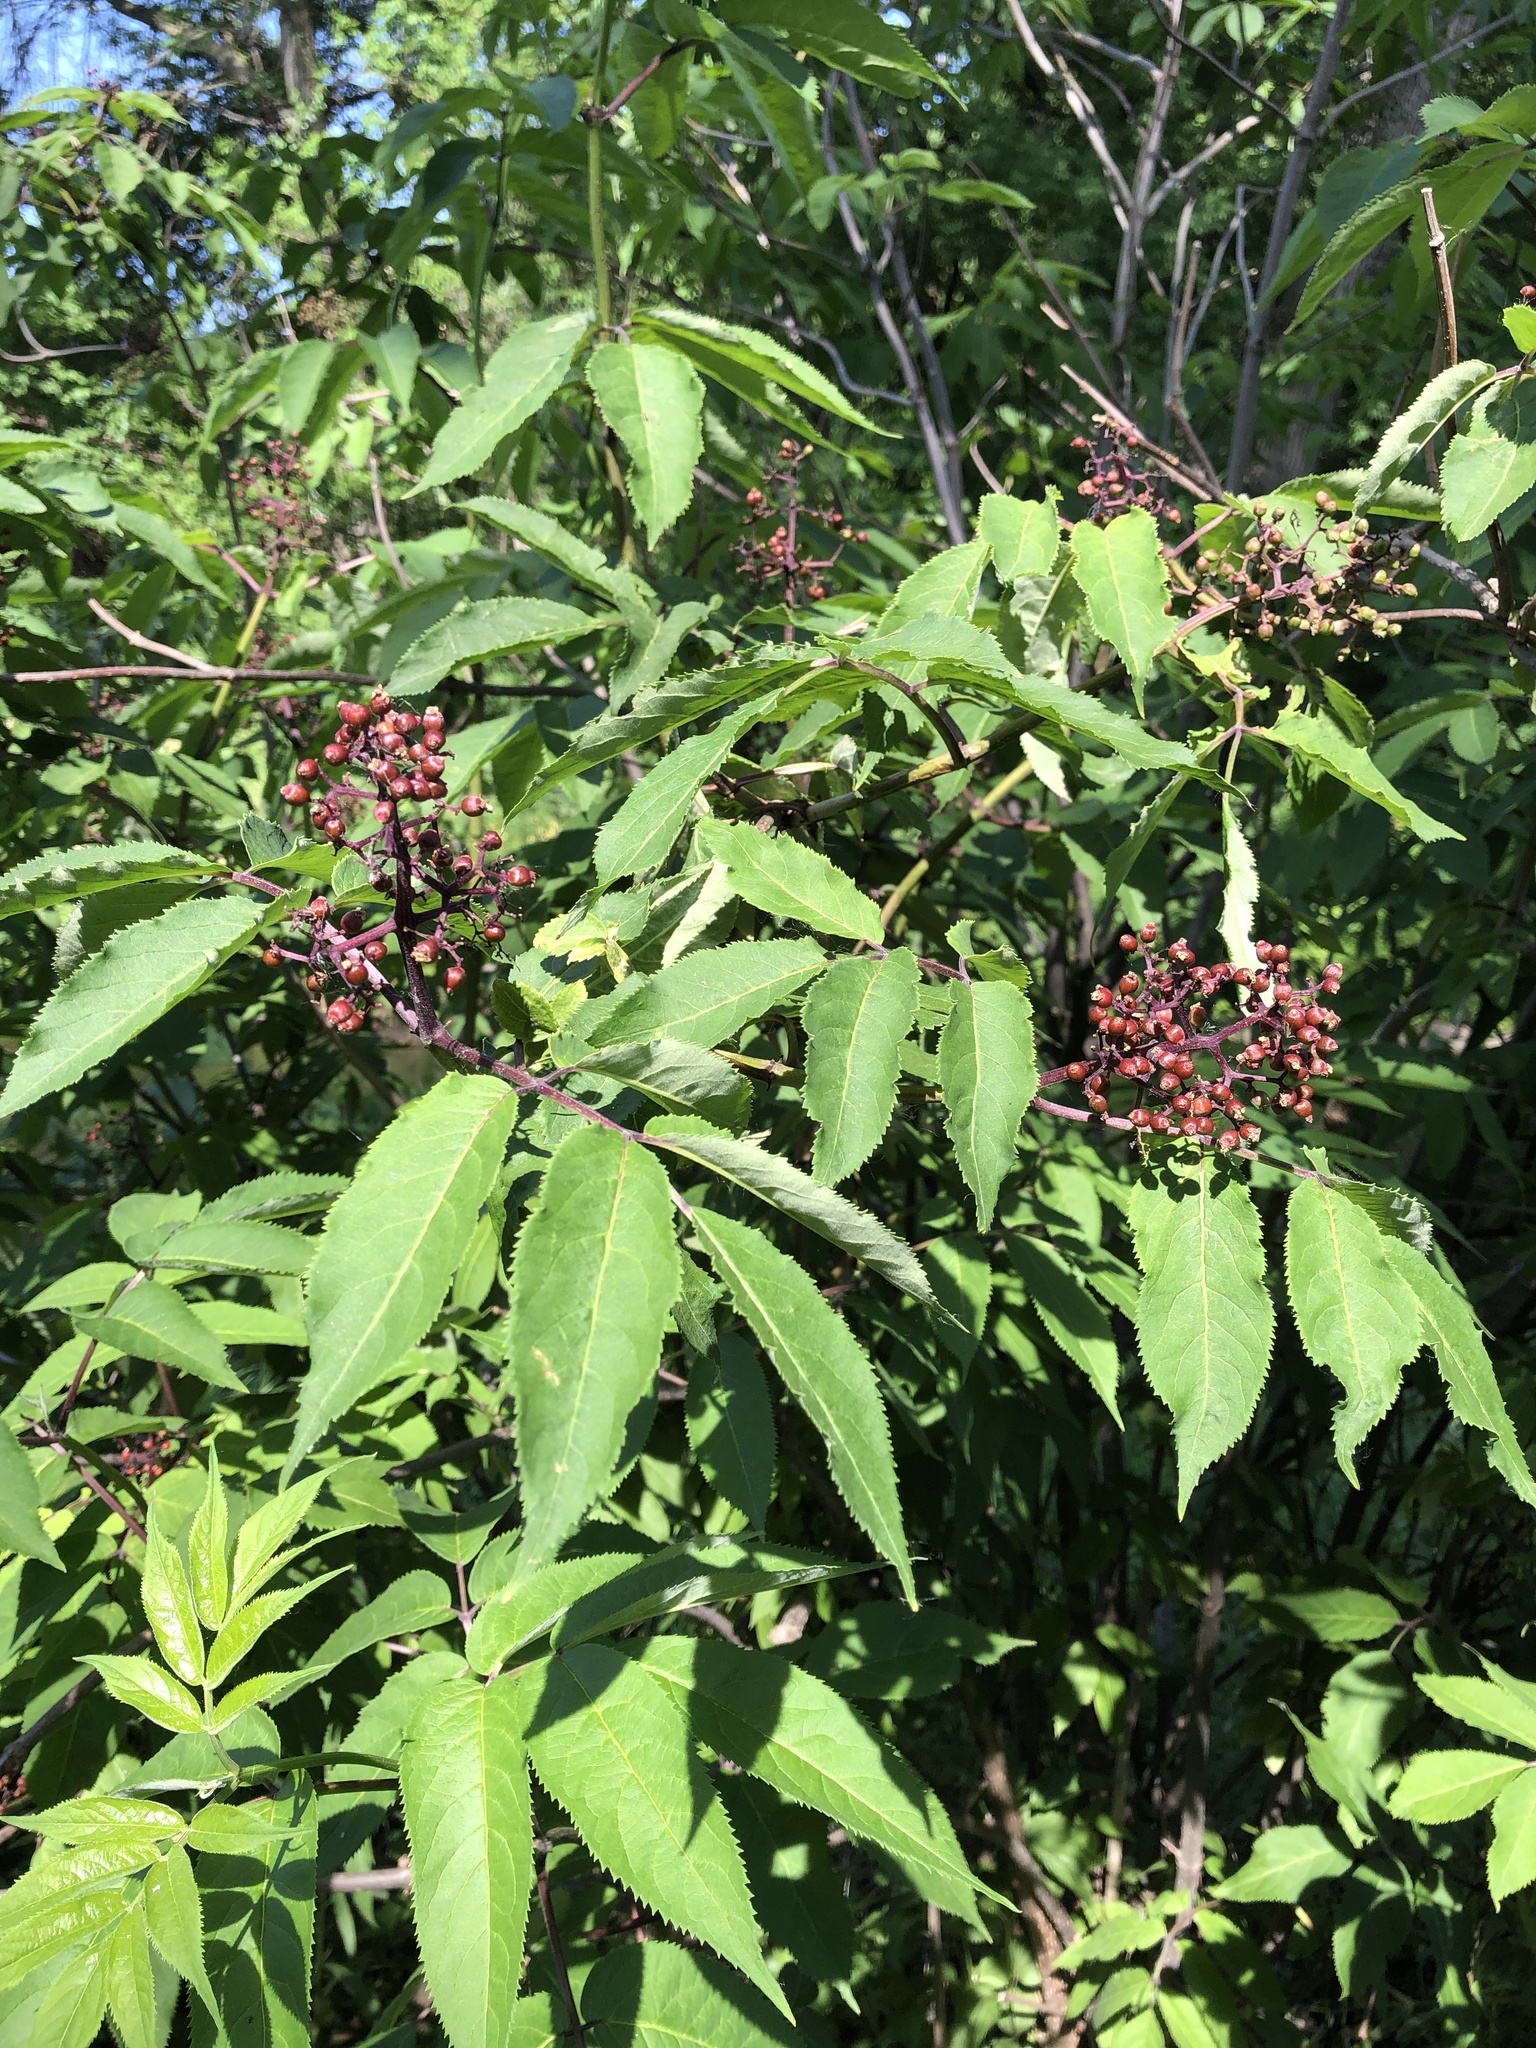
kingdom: Plantae
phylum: Tracheophyta
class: Magnoliopsida
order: Dipsacales
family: Viburnaceae
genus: Sambucus
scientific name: Sambucus racemosa
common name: Red-berried elder
